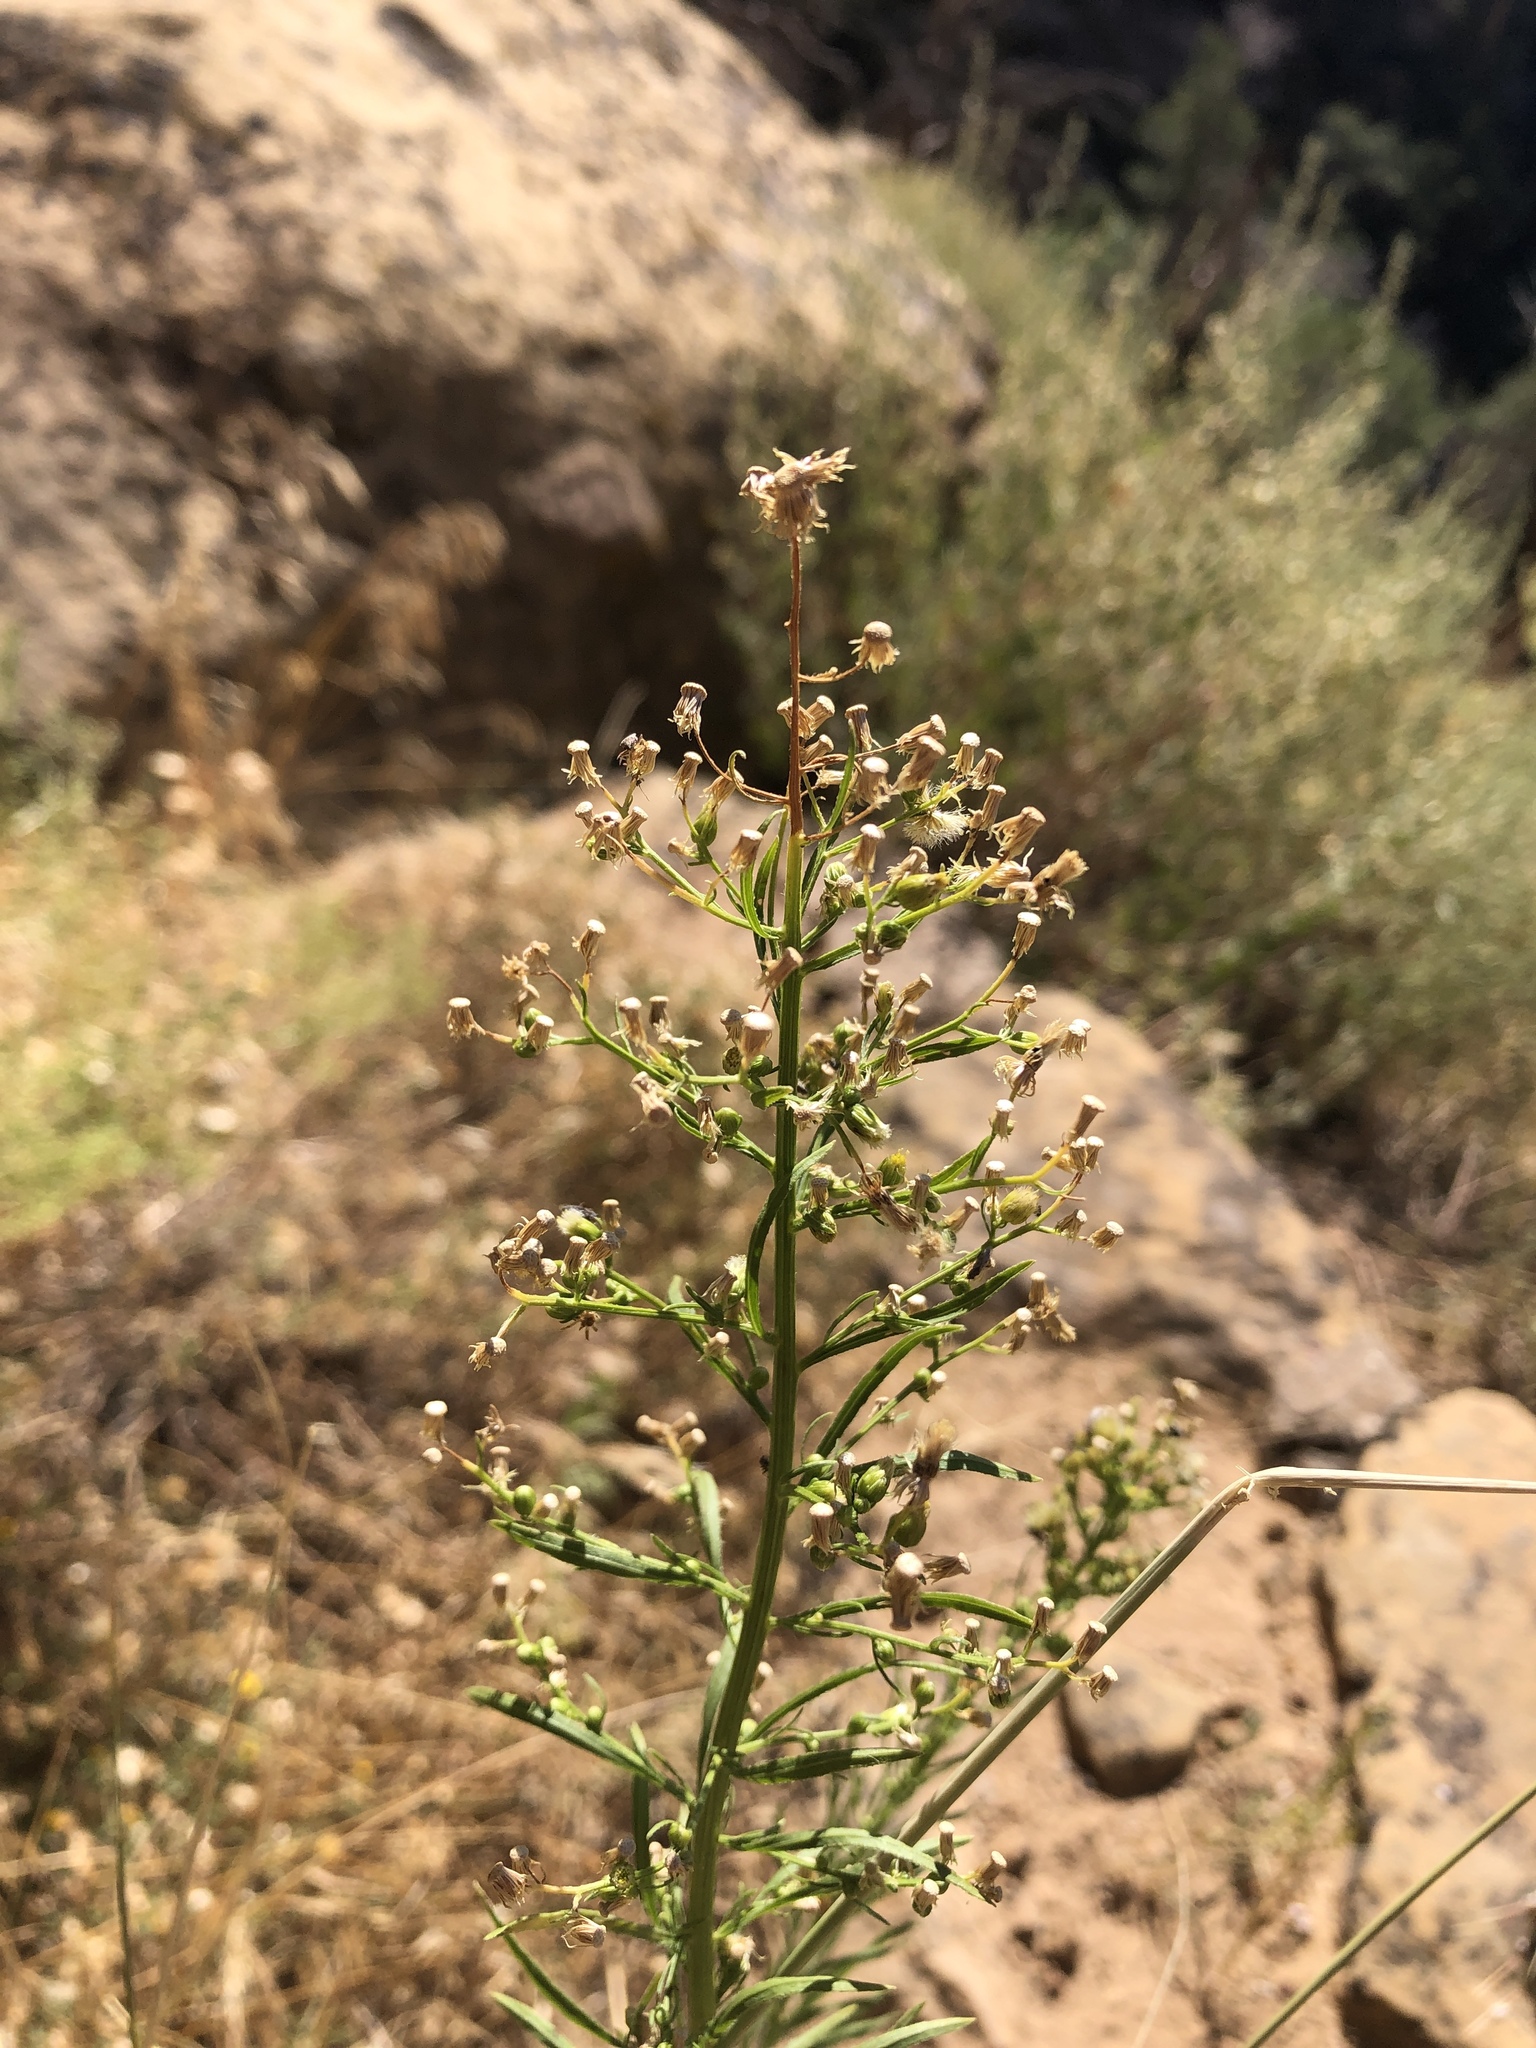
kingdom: Plantae
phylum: Tracheophyta
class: Magnoliopsida
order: Asterales
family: Asteraceae
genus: Erigeron
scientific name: Erigeron canadensis
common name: Canadian fleabane
